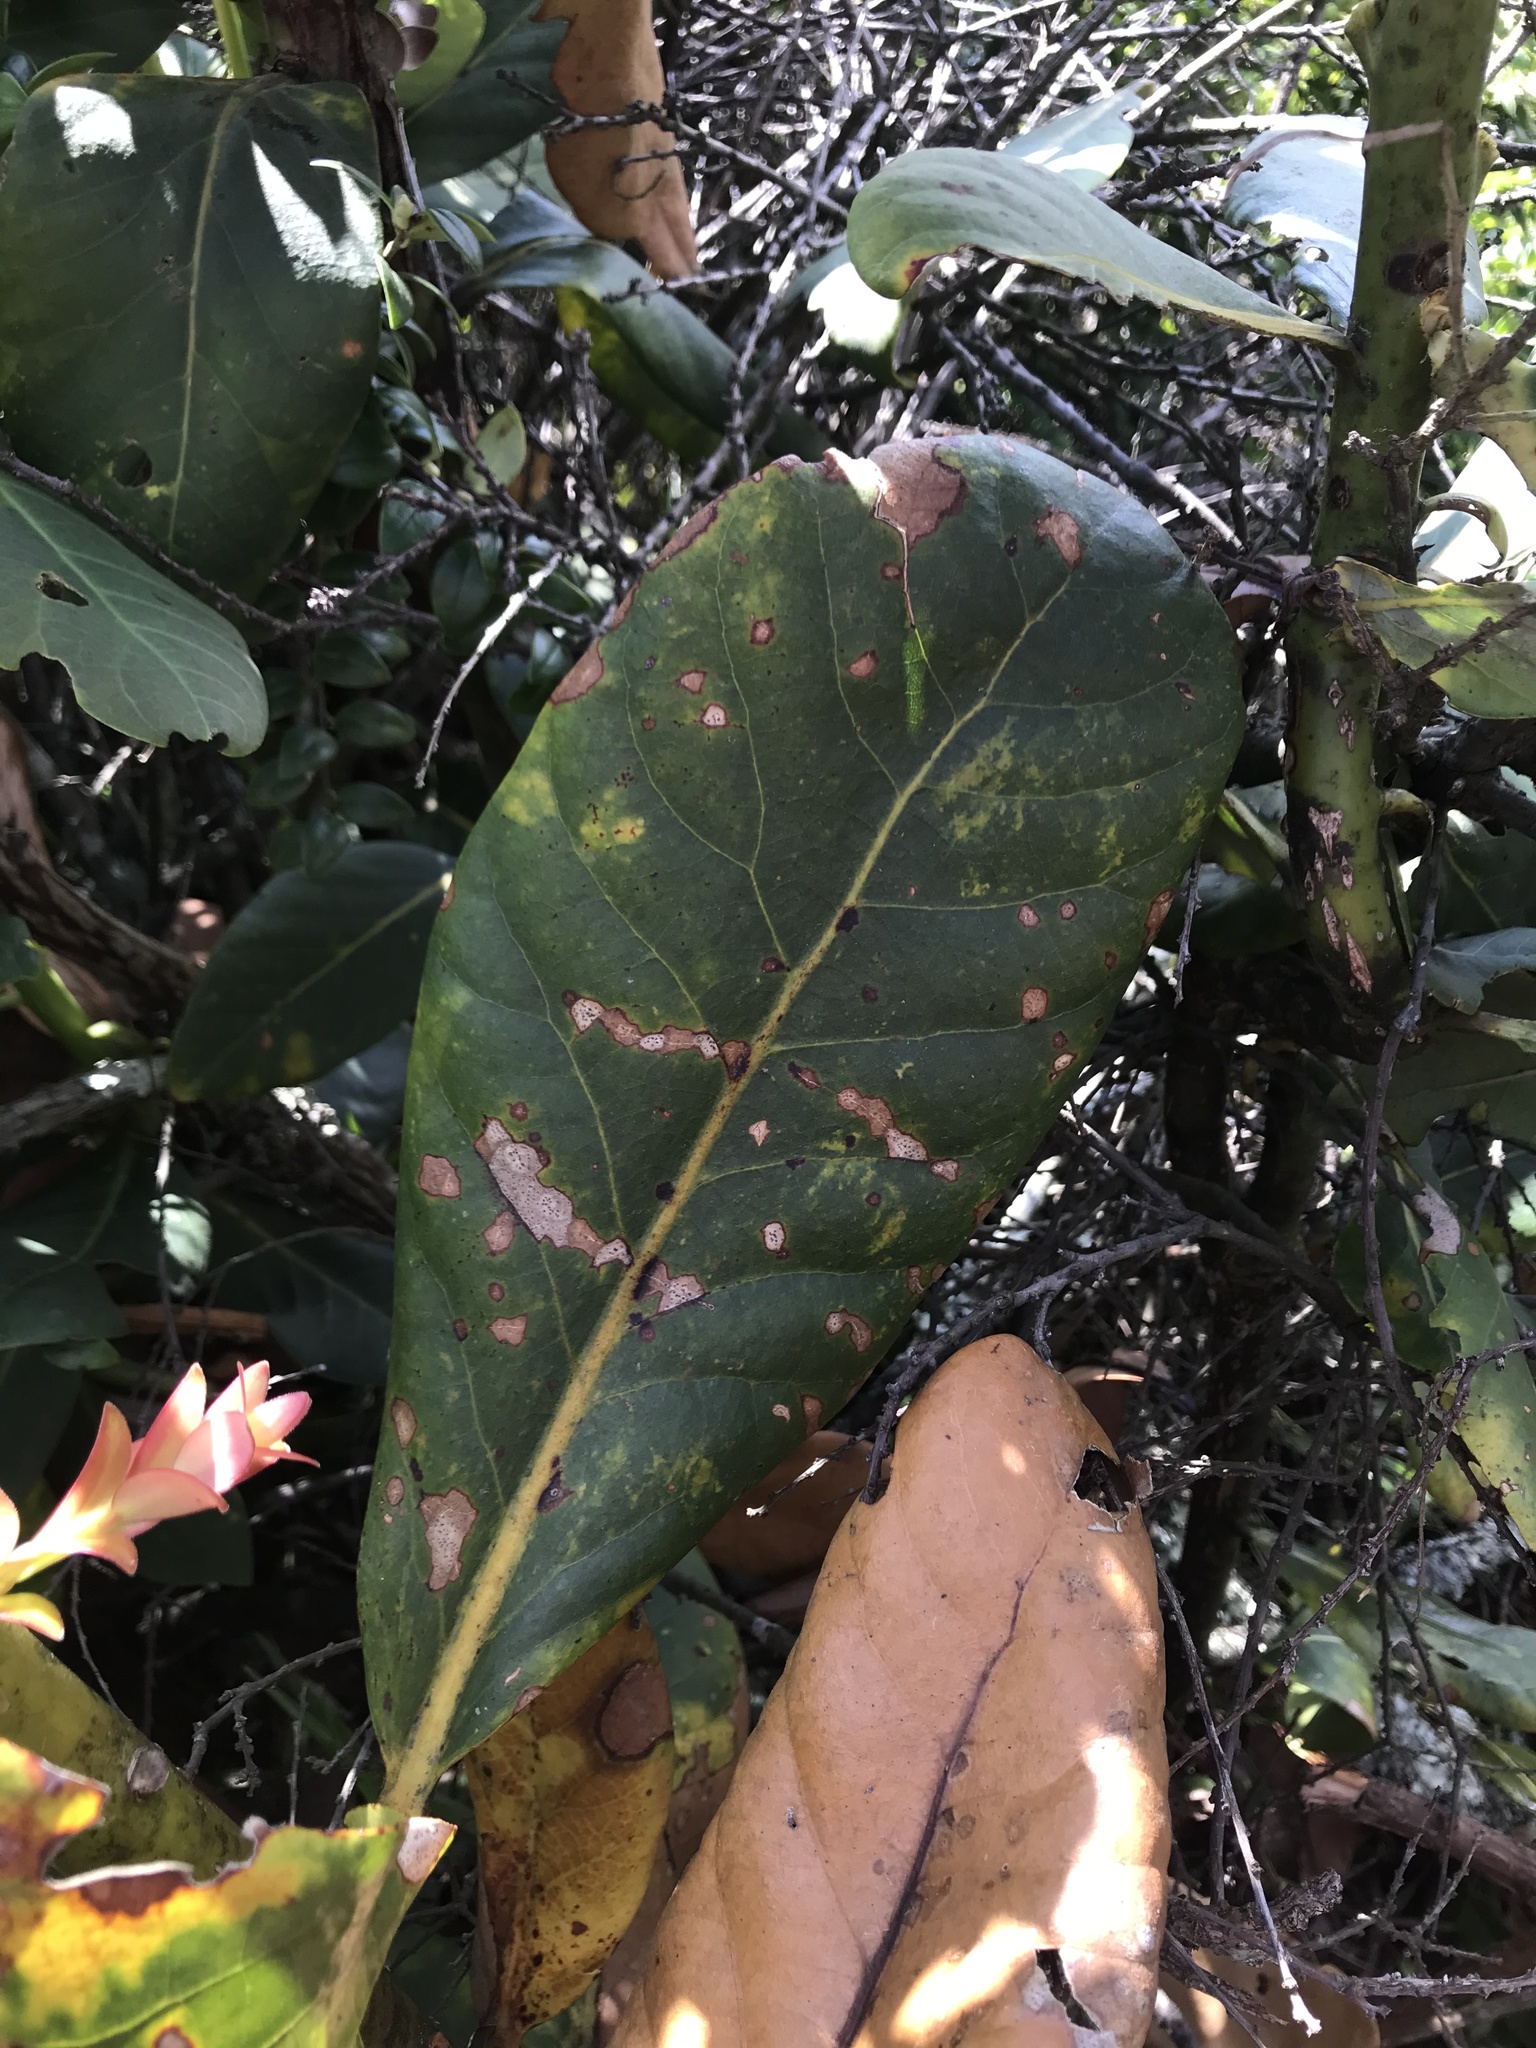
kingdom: Plantae
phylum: Tracheophyta
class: Magnoliopsida
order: Laurales
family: Lauraceae
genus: Persea
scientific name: Persea mutisii
